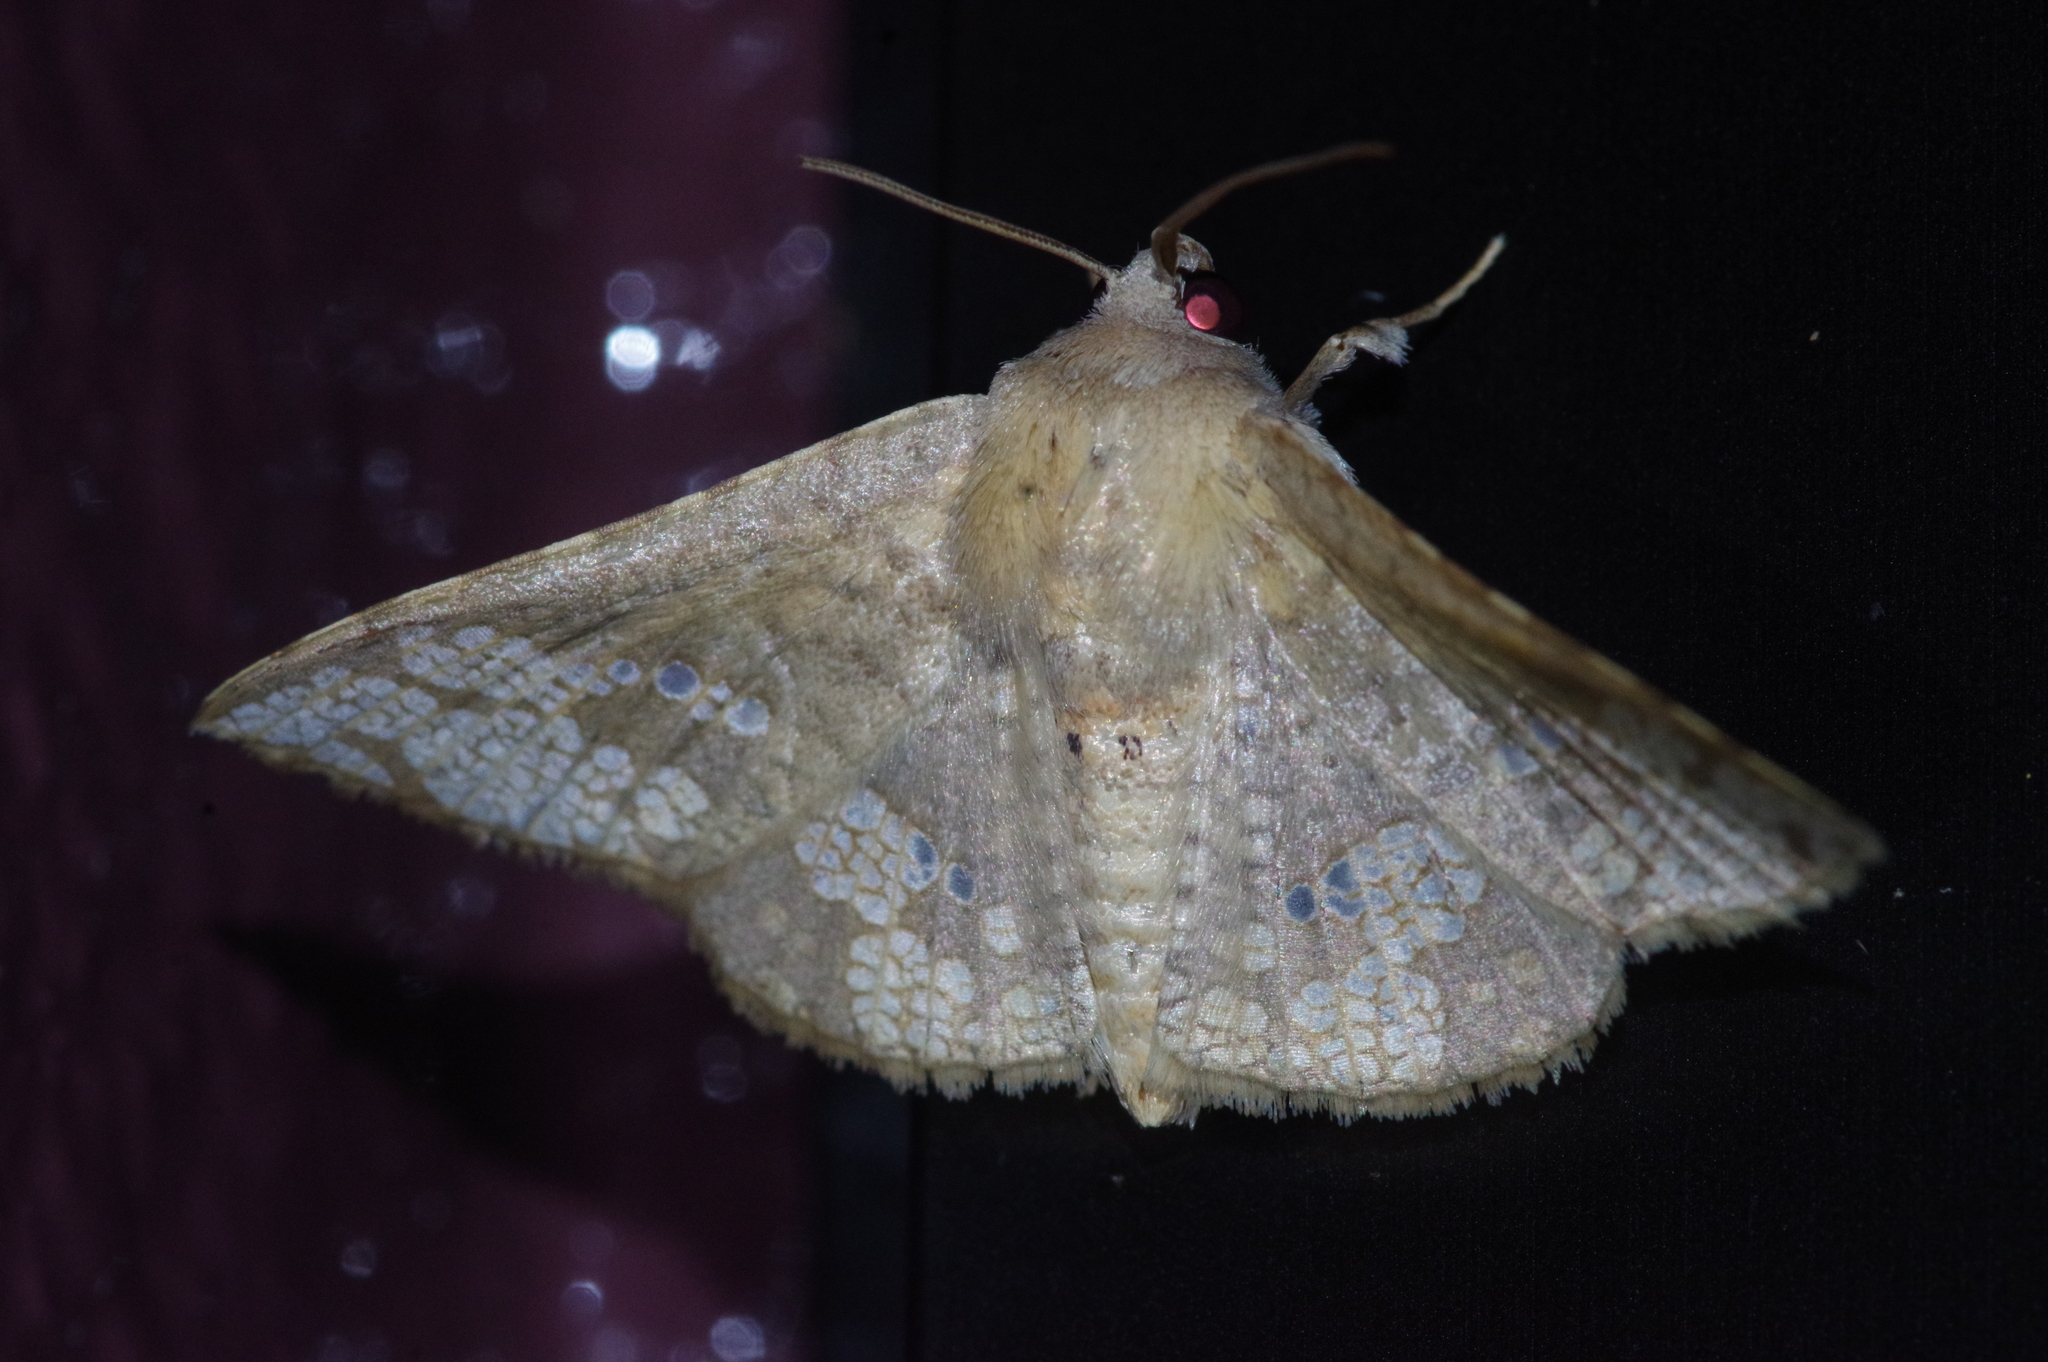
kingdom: Animalia
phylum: Arthropoda
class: Insecta
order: Lepidoptera
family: Thyrididae
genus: Canaea
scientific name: Canaea ryukyuensis
